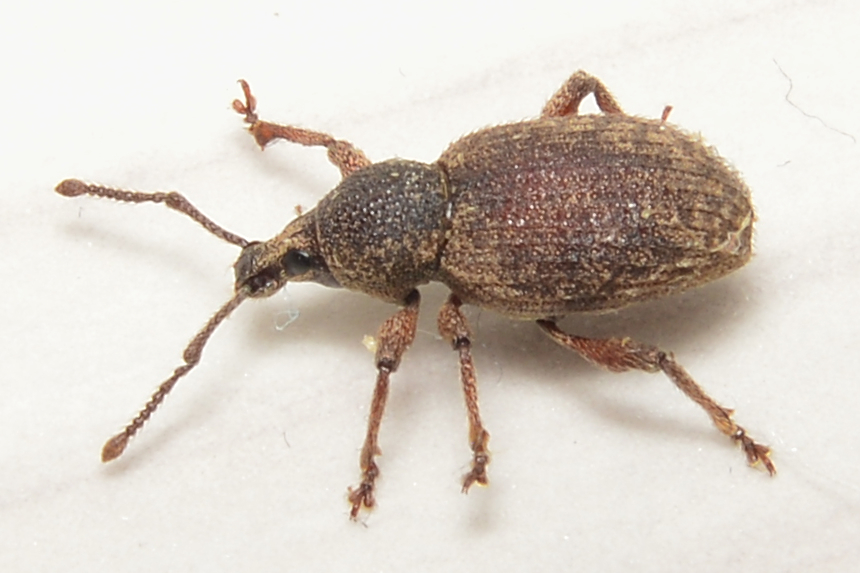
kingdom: Animalia
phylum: Arthropoda
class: Insecta
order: Coleoptera
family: Curculionidae
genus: Otiorhynchus
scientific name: Otiorhynchus singularis
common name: Clay-coloured weevil
